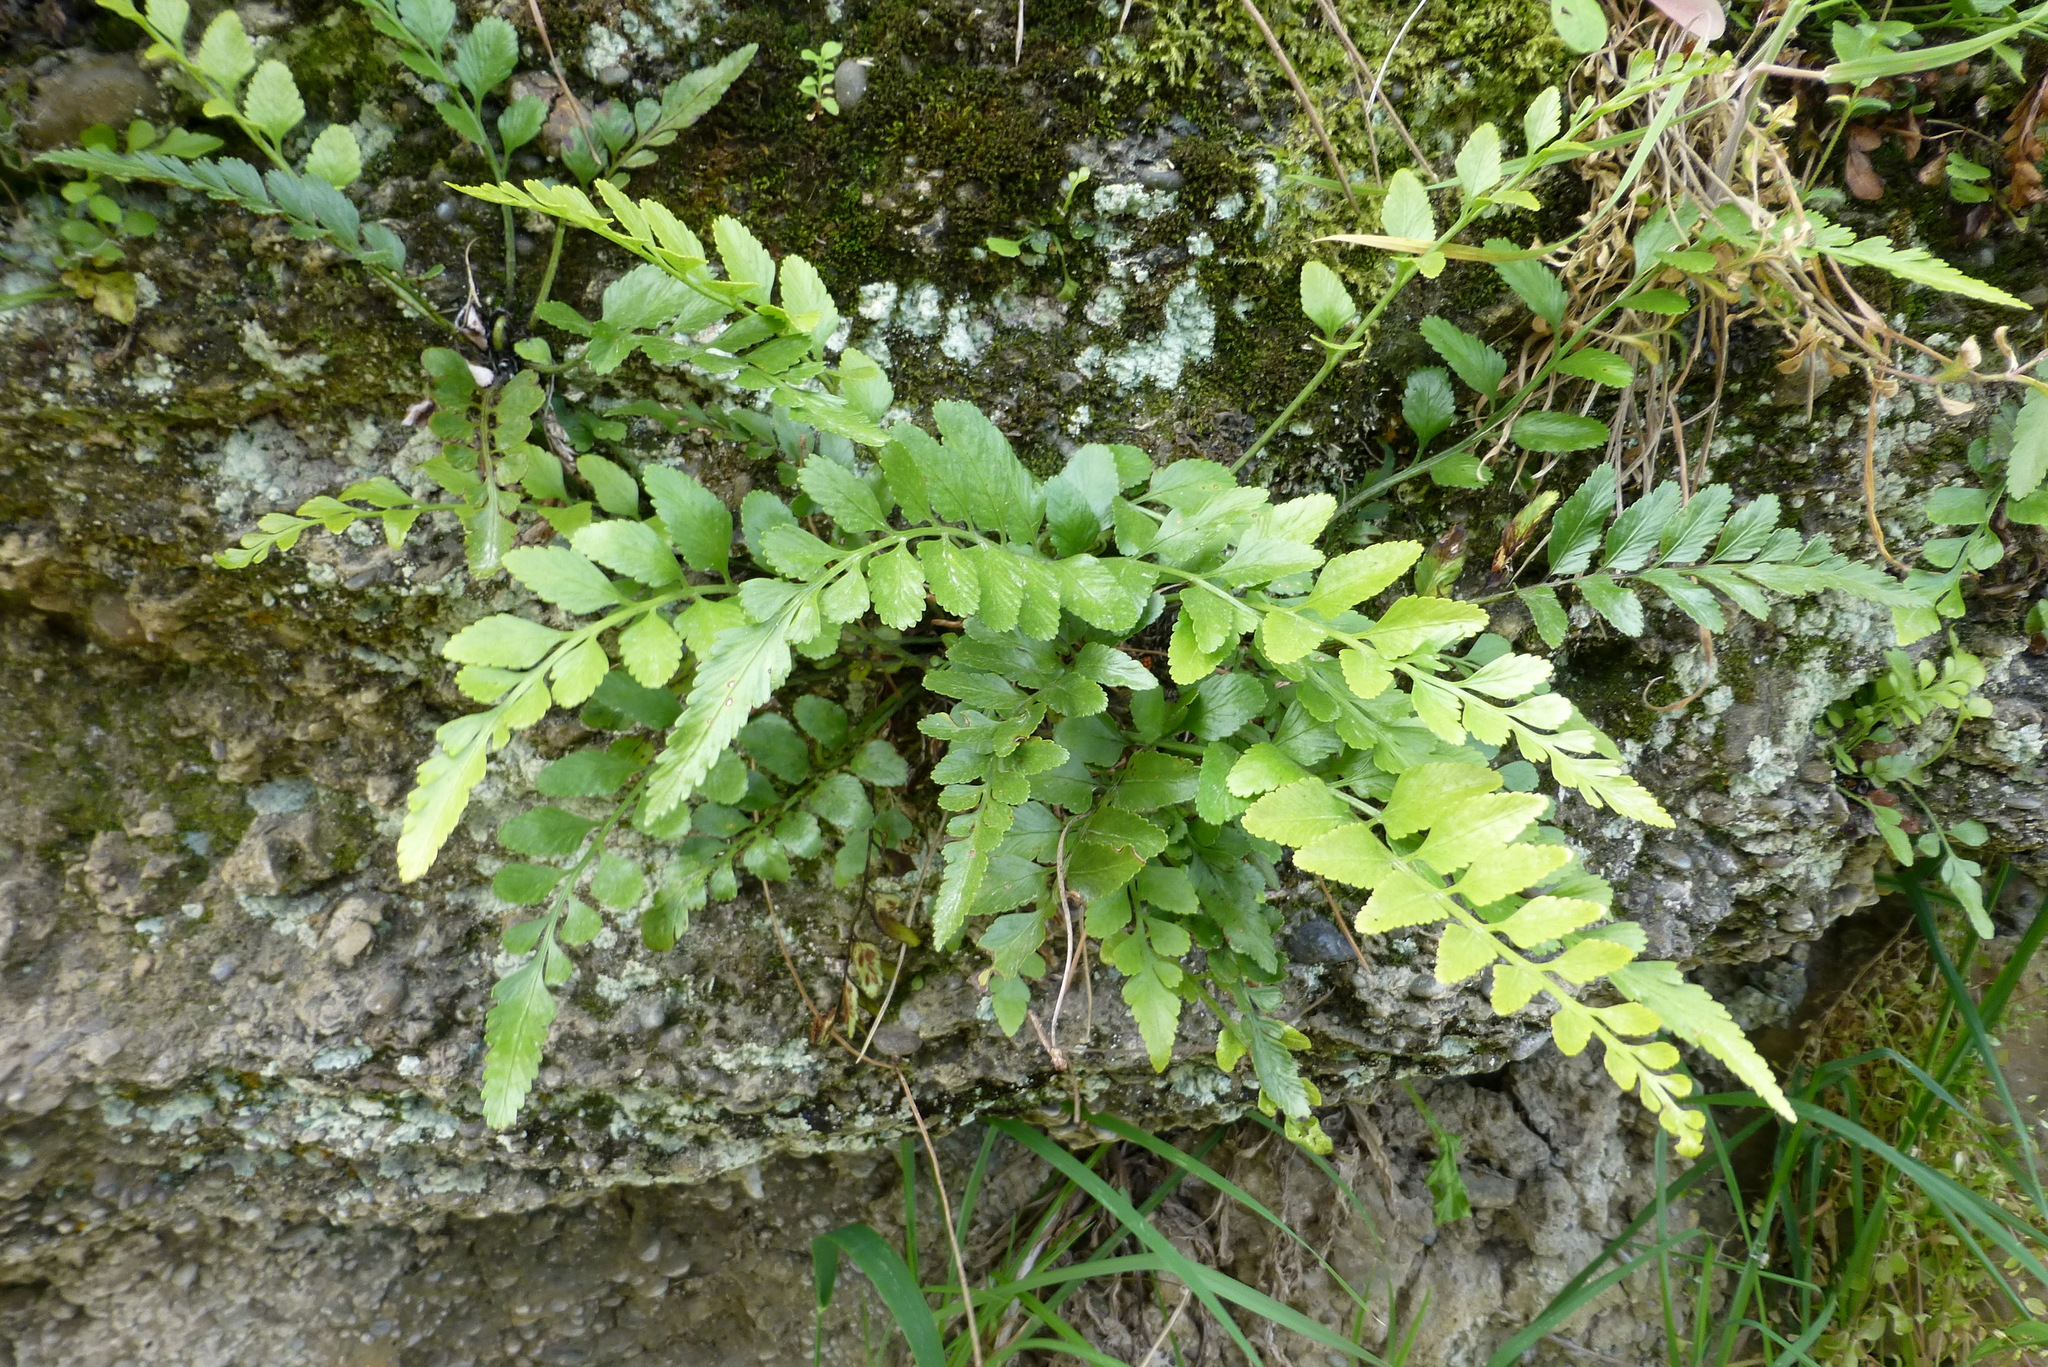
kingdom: Plantae
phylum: Tracheophyta
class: Polypodiopsida
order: Polypodiales
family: Aspleniaceae
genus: Asplenium
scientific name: Asplenium lyallii
